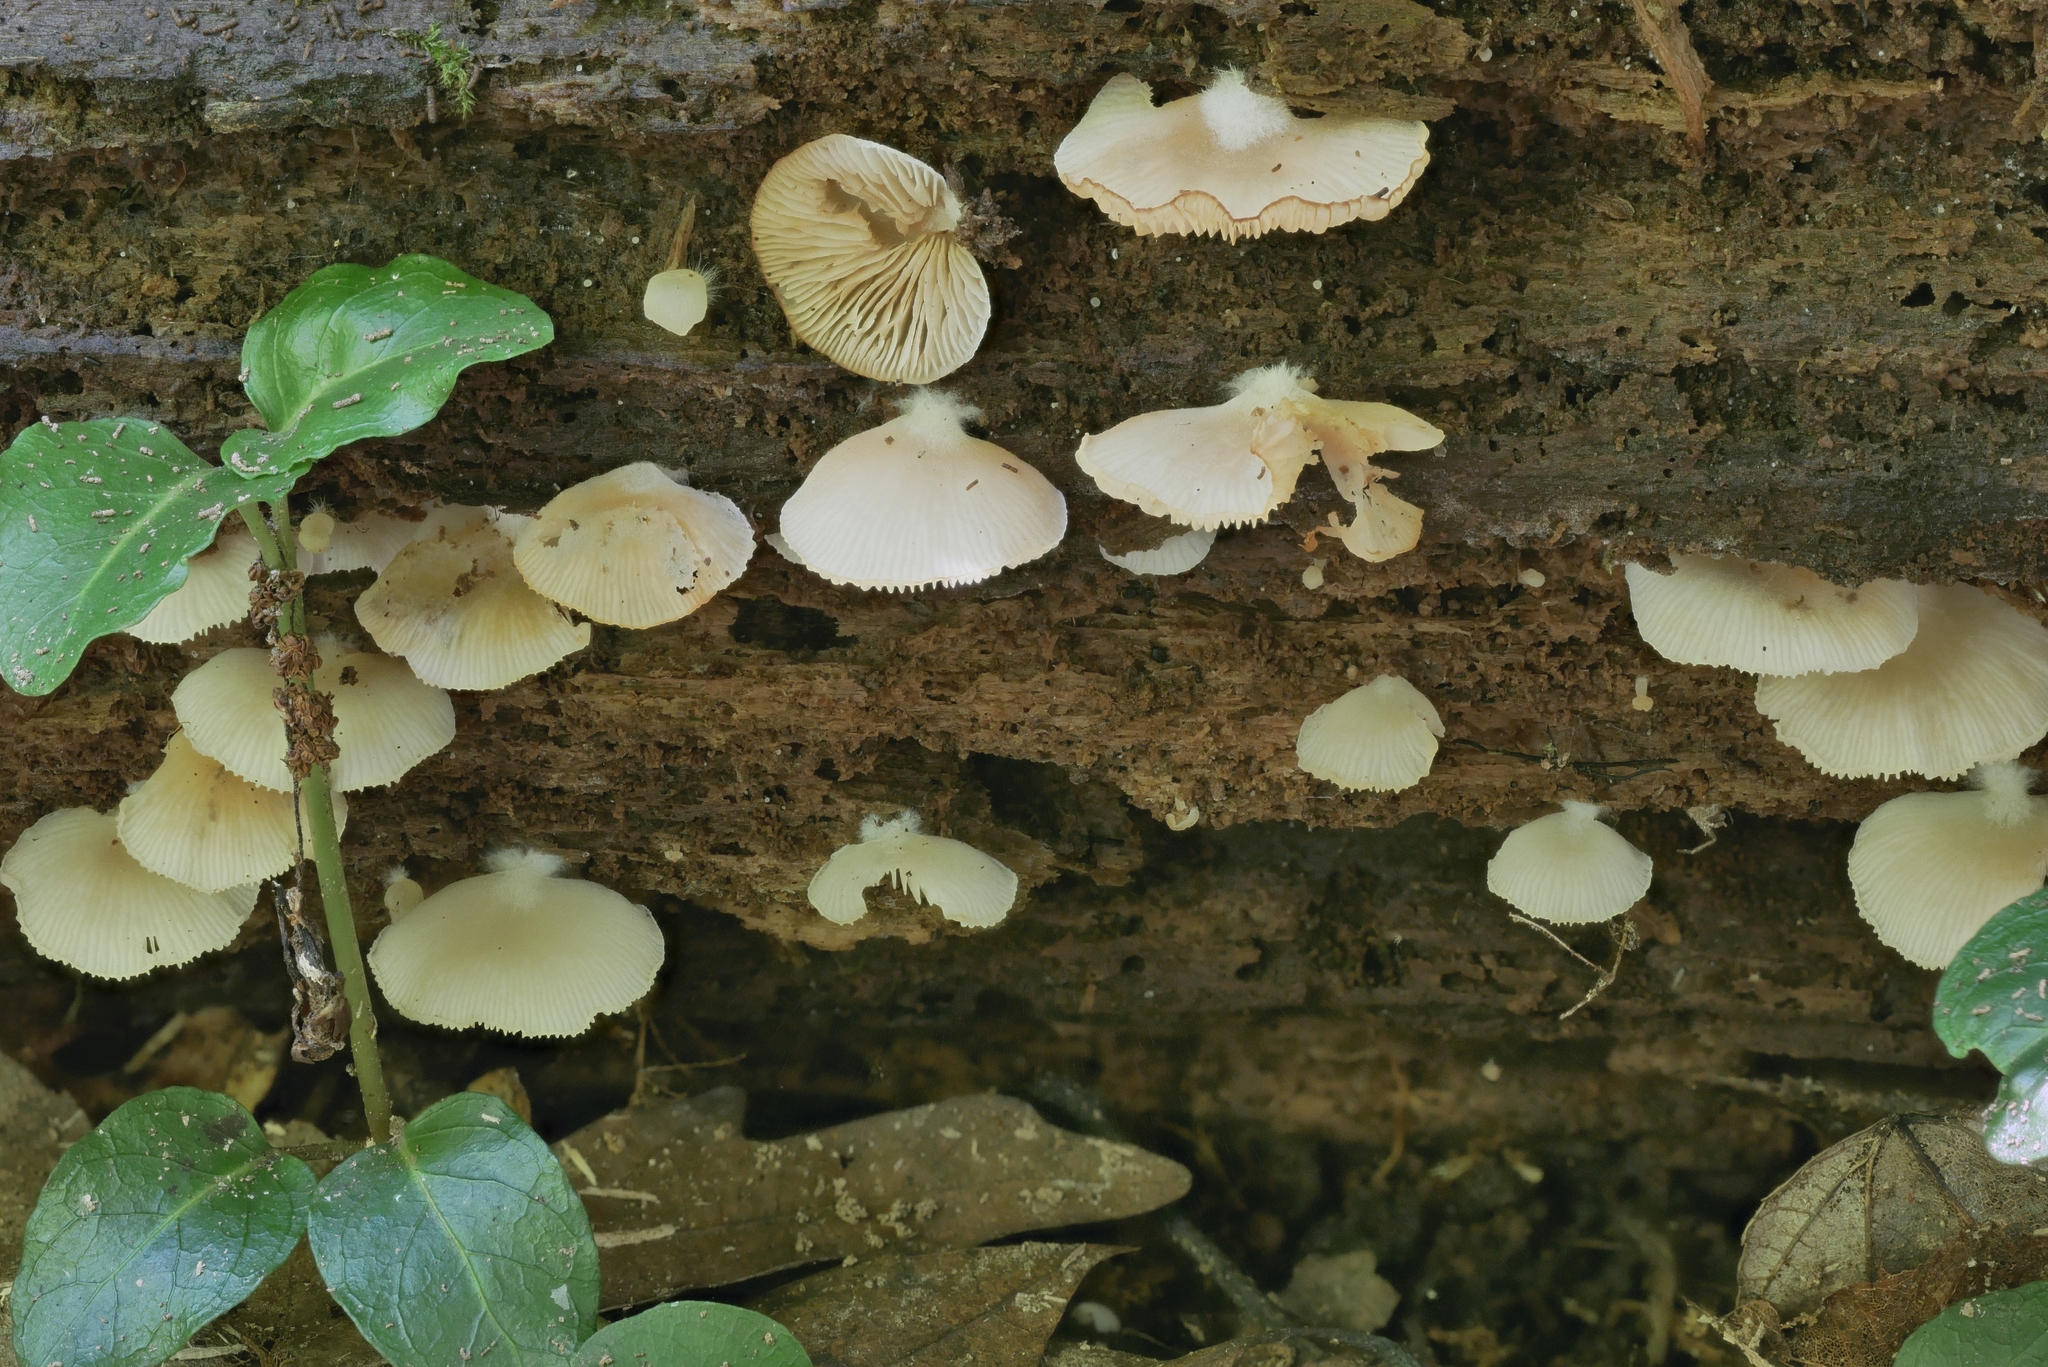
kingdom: Fungi
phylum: Basidiomycota
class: Agaricomycetes
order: Agaricales
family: Crepidotaceae
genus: Crepidotus
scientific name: Crepidotus applanatus
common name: Flat crep
